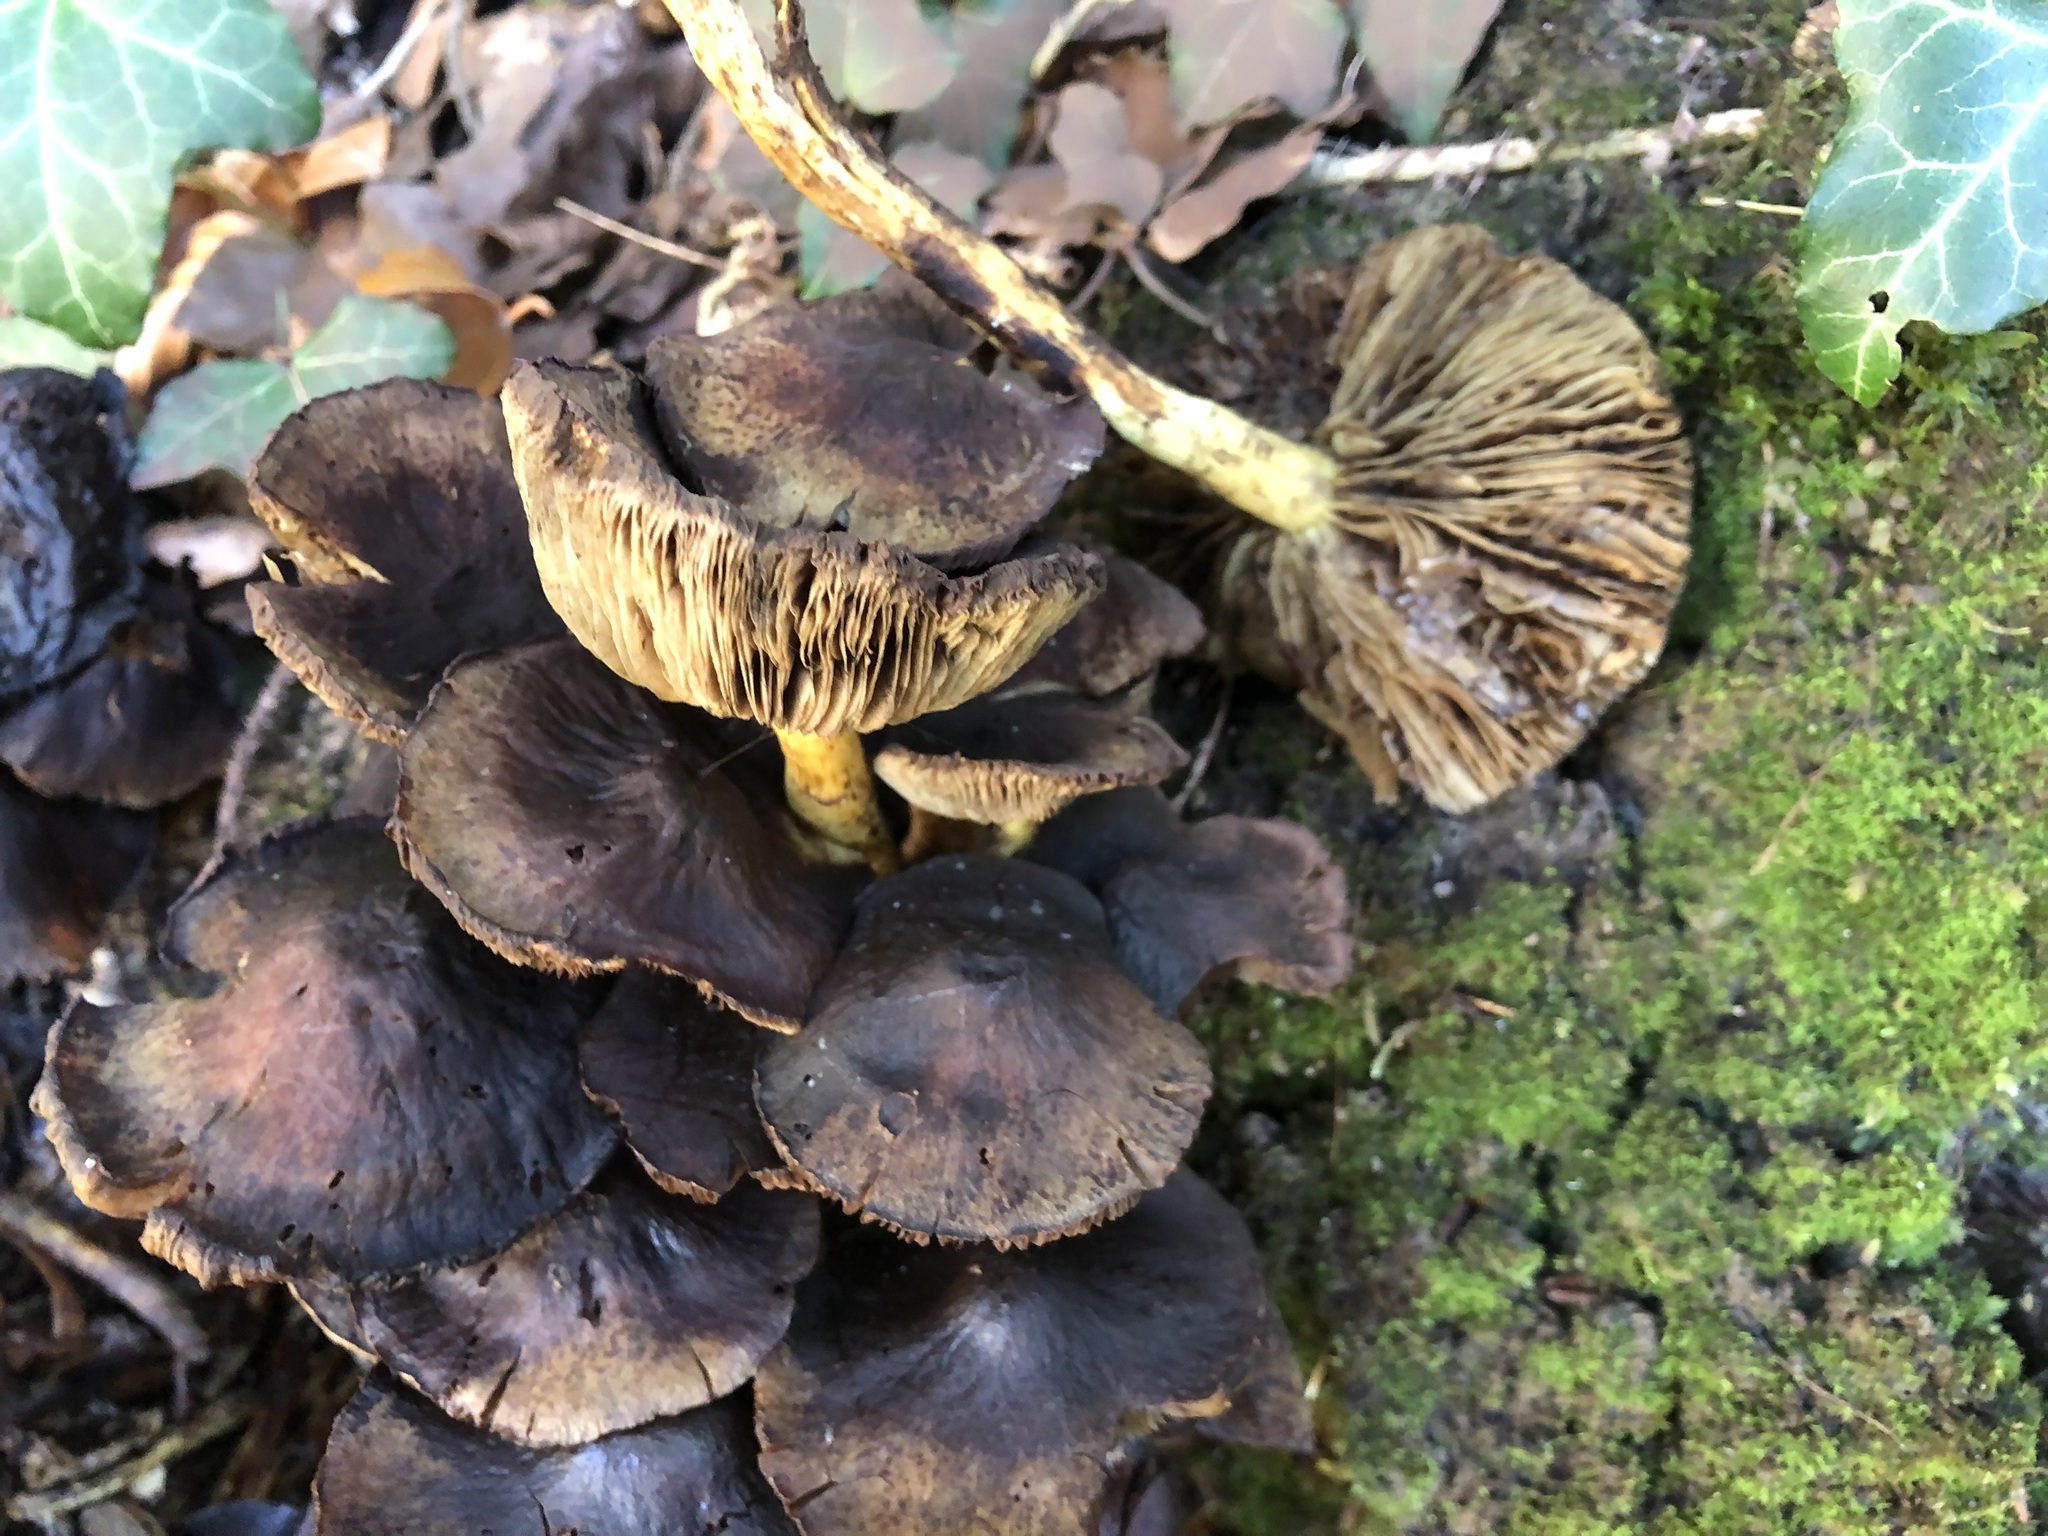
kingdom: Fungi
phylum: Basidiomycota
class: Agaricomycetes
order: Agaricales
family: Strophariaceae
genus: Hypholoma
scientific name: Hypholoma fasciculare
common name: Sulphur tuft
